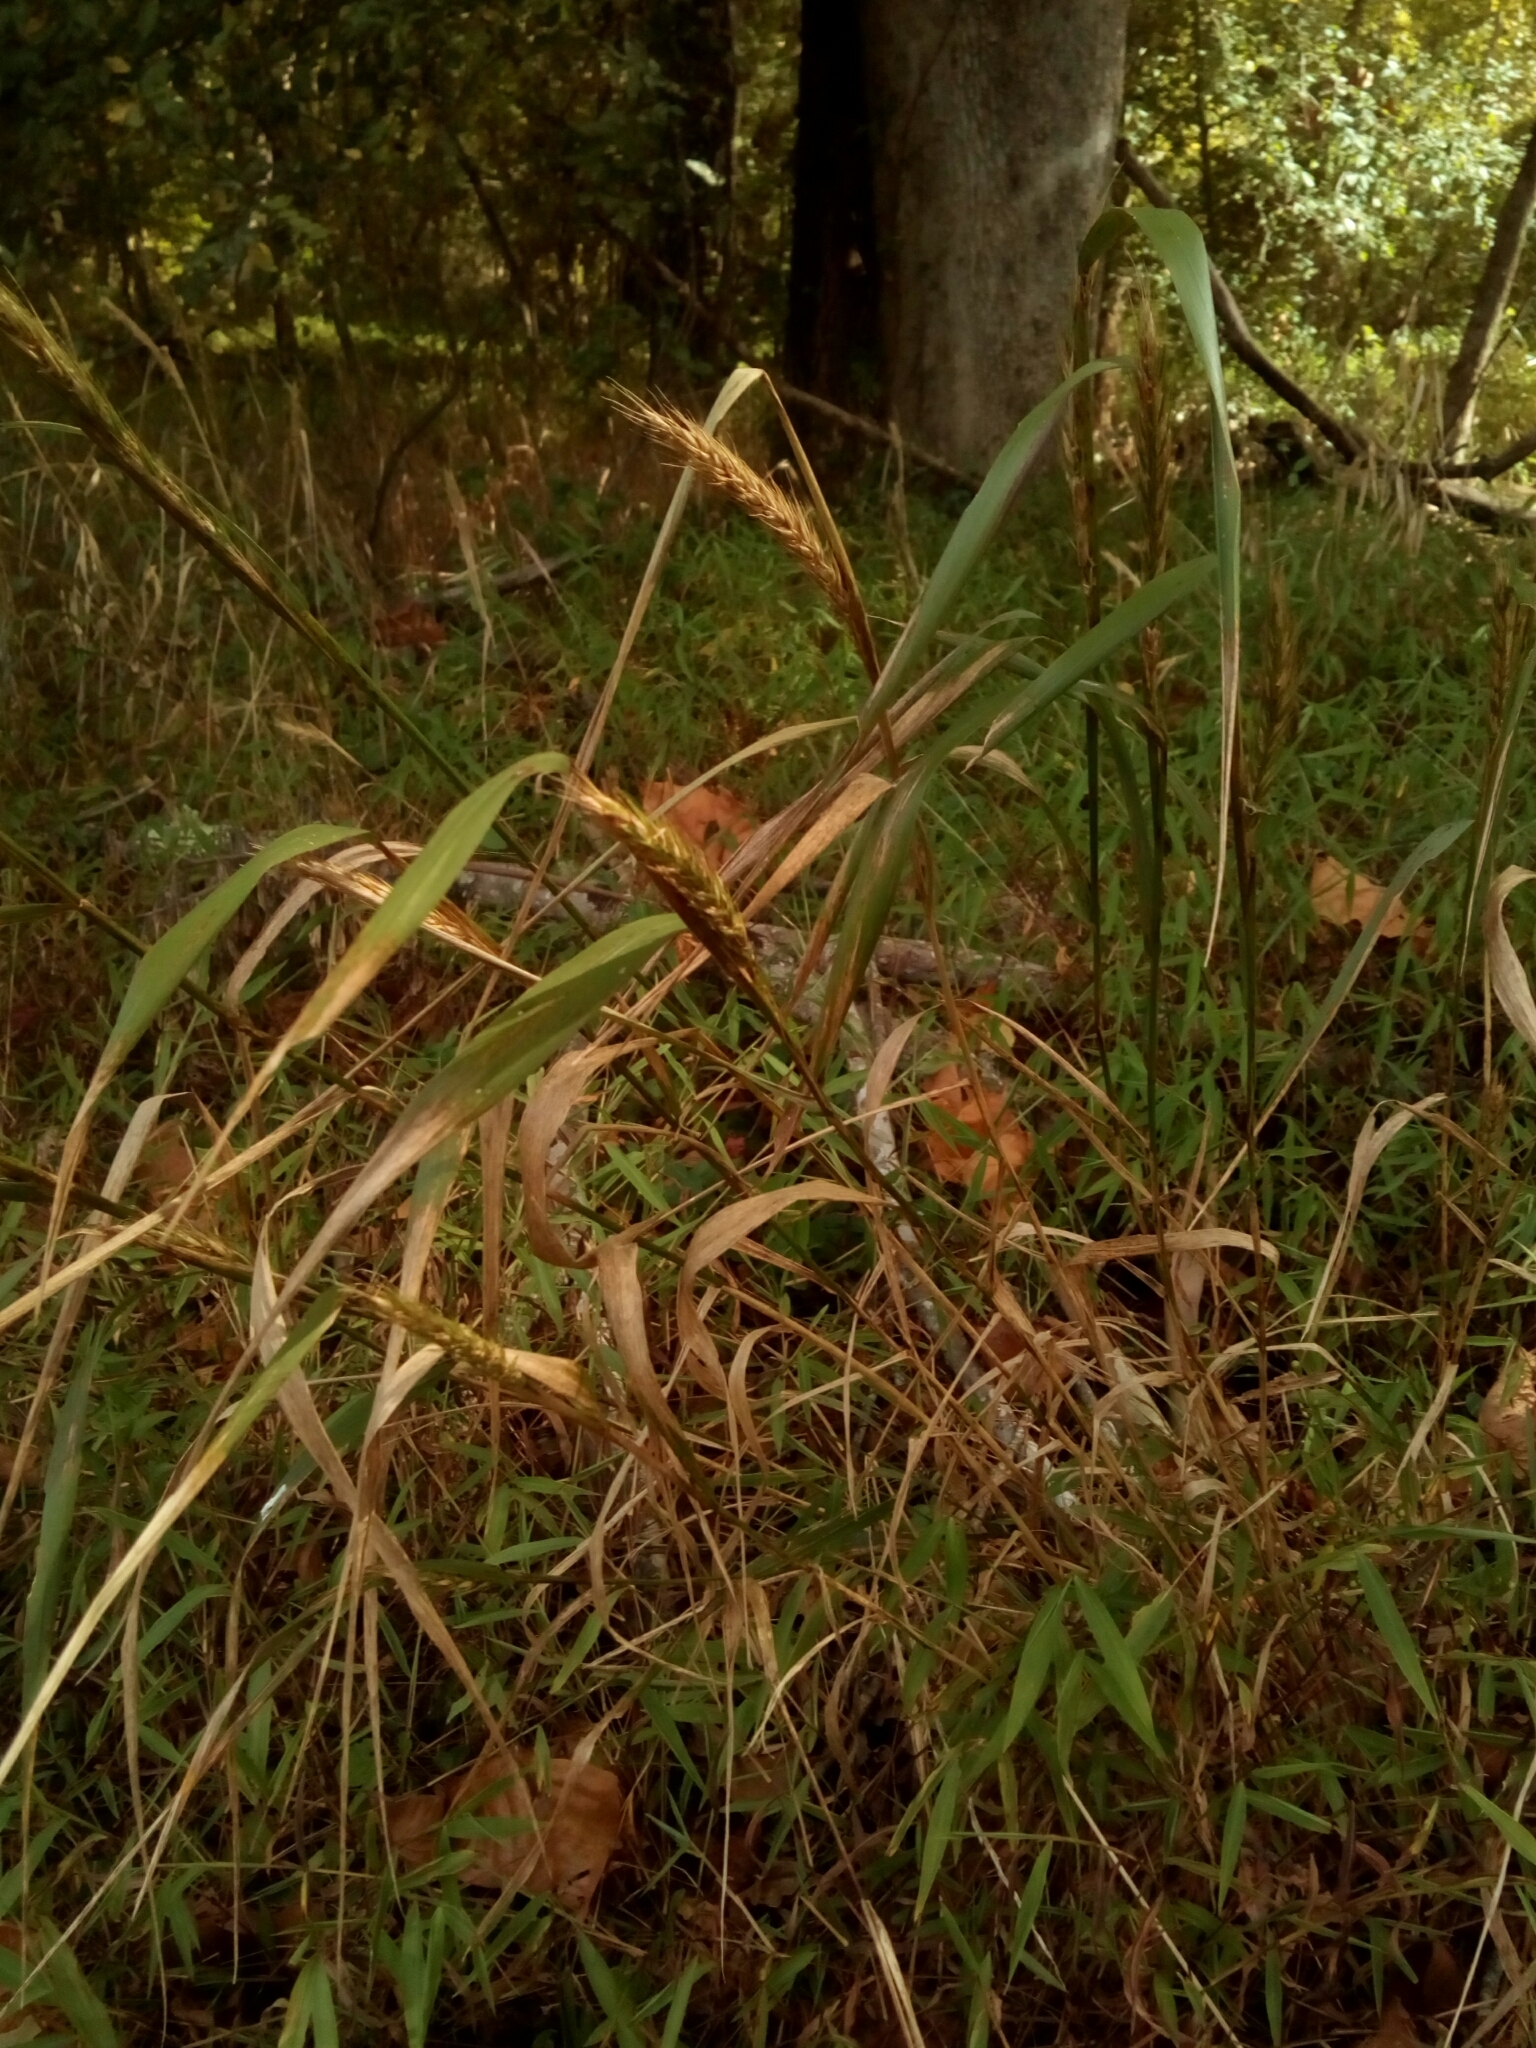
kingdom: Plantae
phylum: Tracheophyta
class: Liliopsida
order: Poales
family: Poaceae
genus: Elymus
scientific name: Elymus virginicus
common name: Common eastern wildrye
